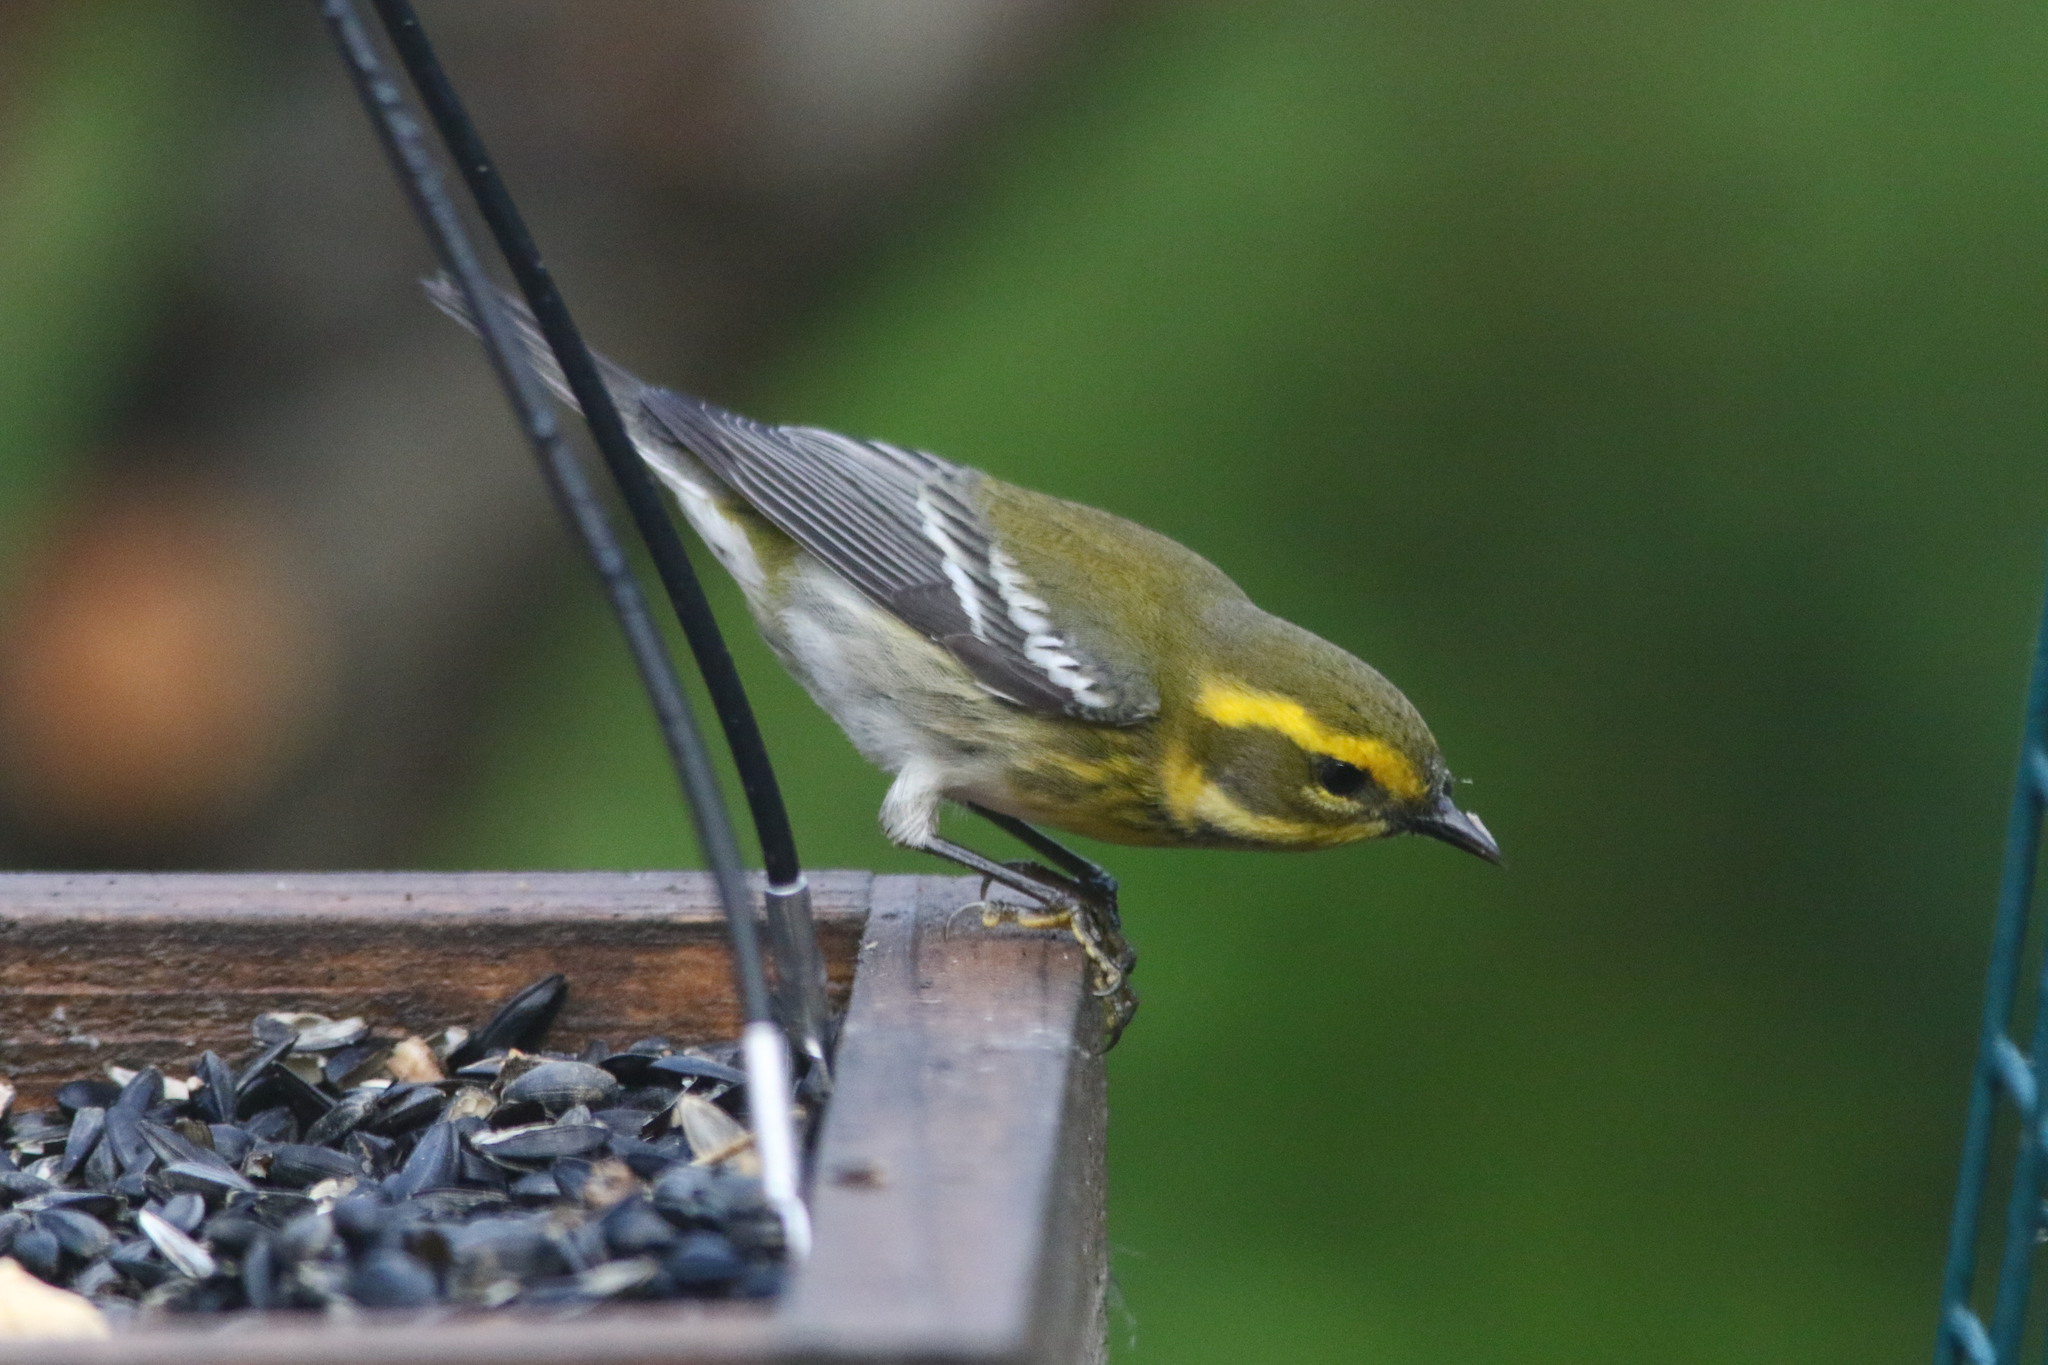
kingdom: Animalia
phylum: Chordata
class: Aves
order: Passeriformes
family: Parulidae
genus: Setophaga
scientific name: Setophaga townsendi
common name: Townsend's warbler
